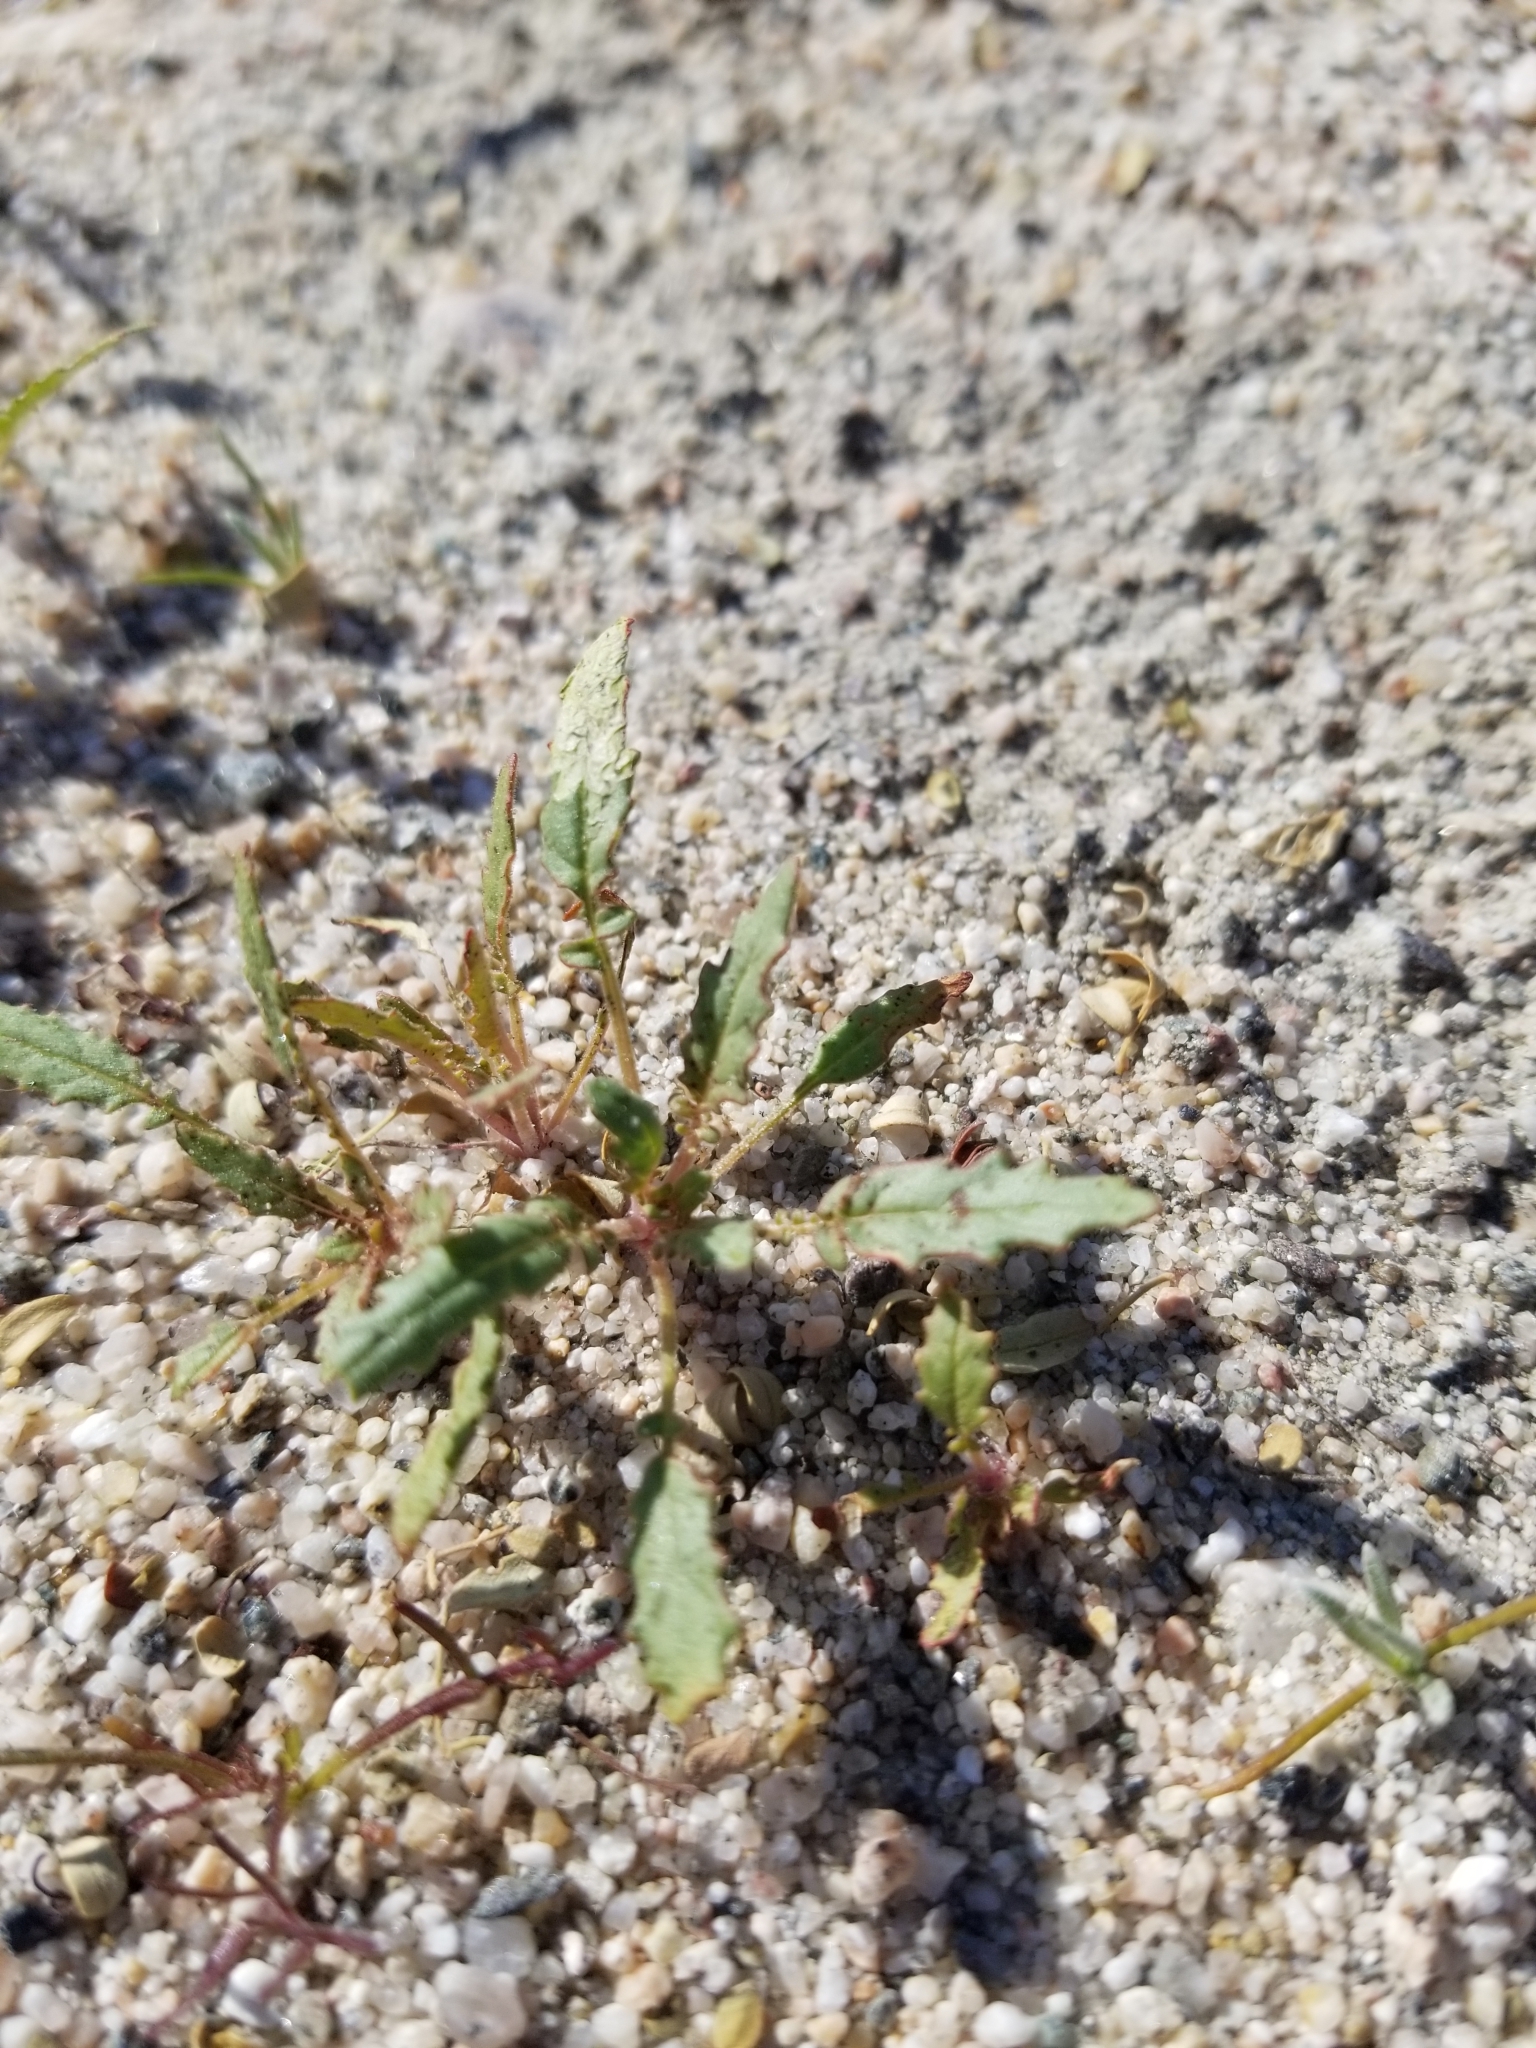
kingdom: Plantae
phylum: Tracheophyta
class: Magnoliopsida
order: Myrtales
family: Onagraceae
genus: Chylismia
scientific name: Chylismia claviformis
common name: Browneyes
